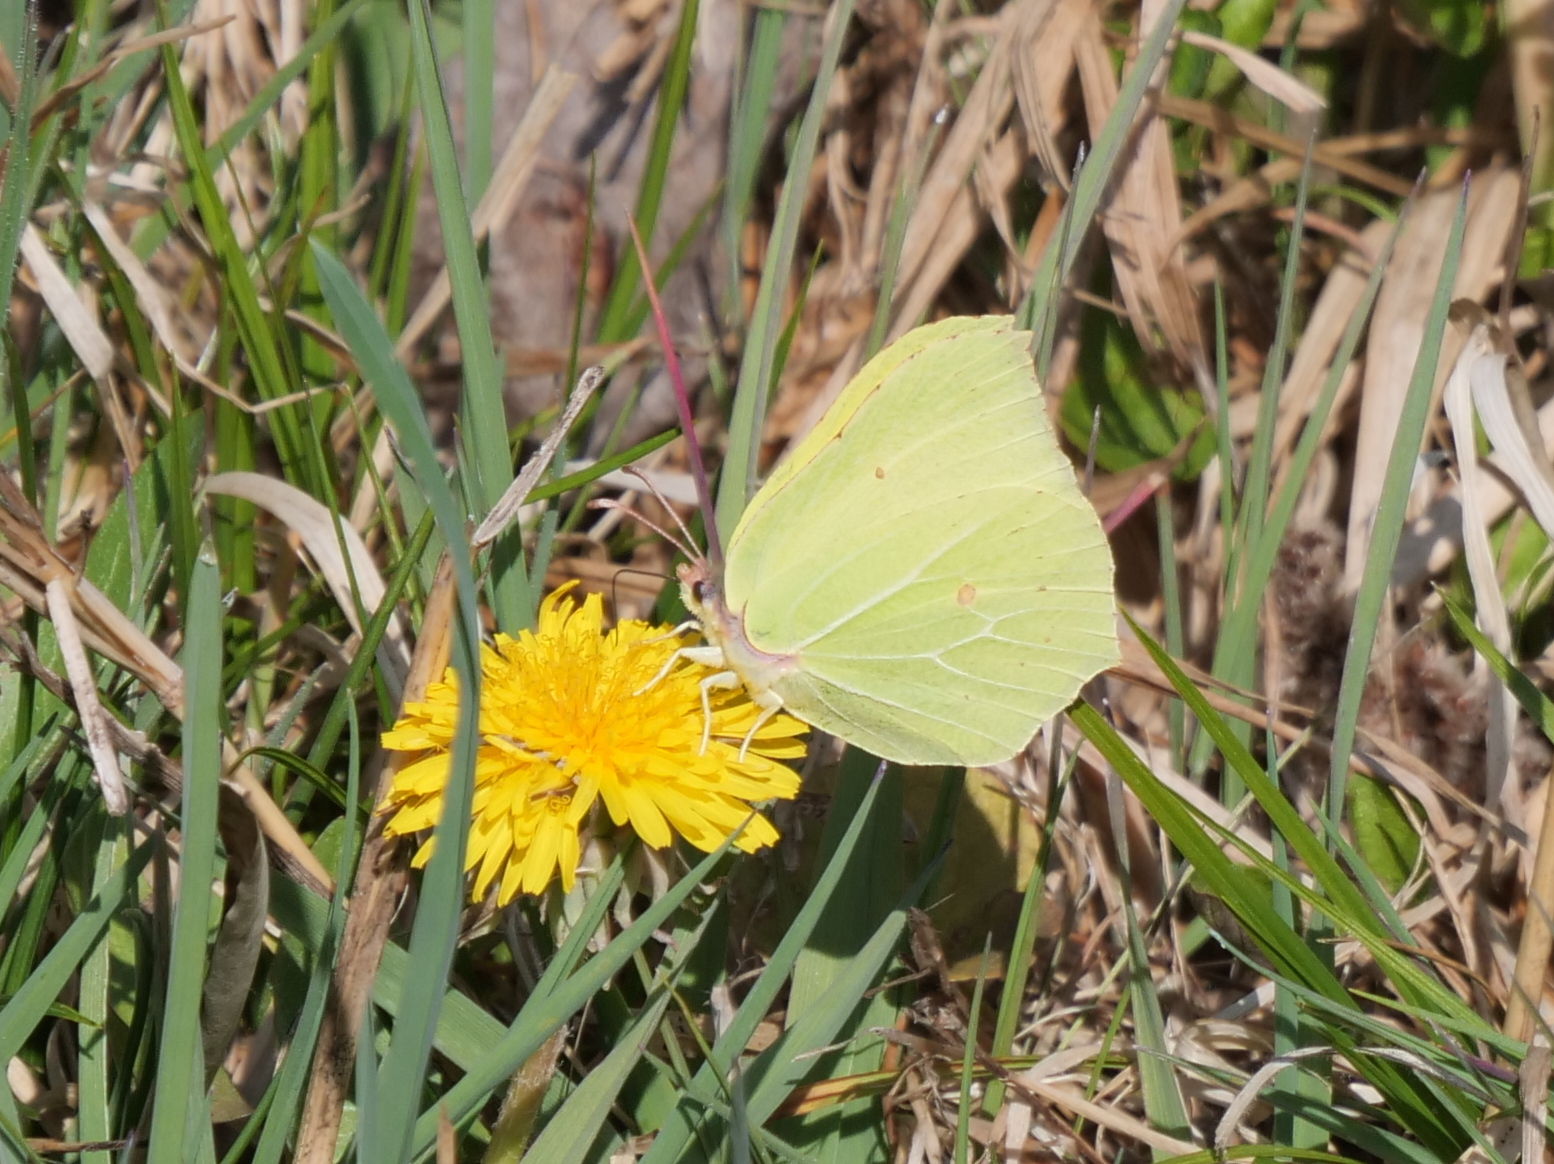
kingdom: Animalia
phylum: Arthropoda
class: Insecta
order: Lepidoptera
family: Pieridae
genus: Gonepteryx
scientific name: Gonepteryx rhamni
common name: Brimstone
